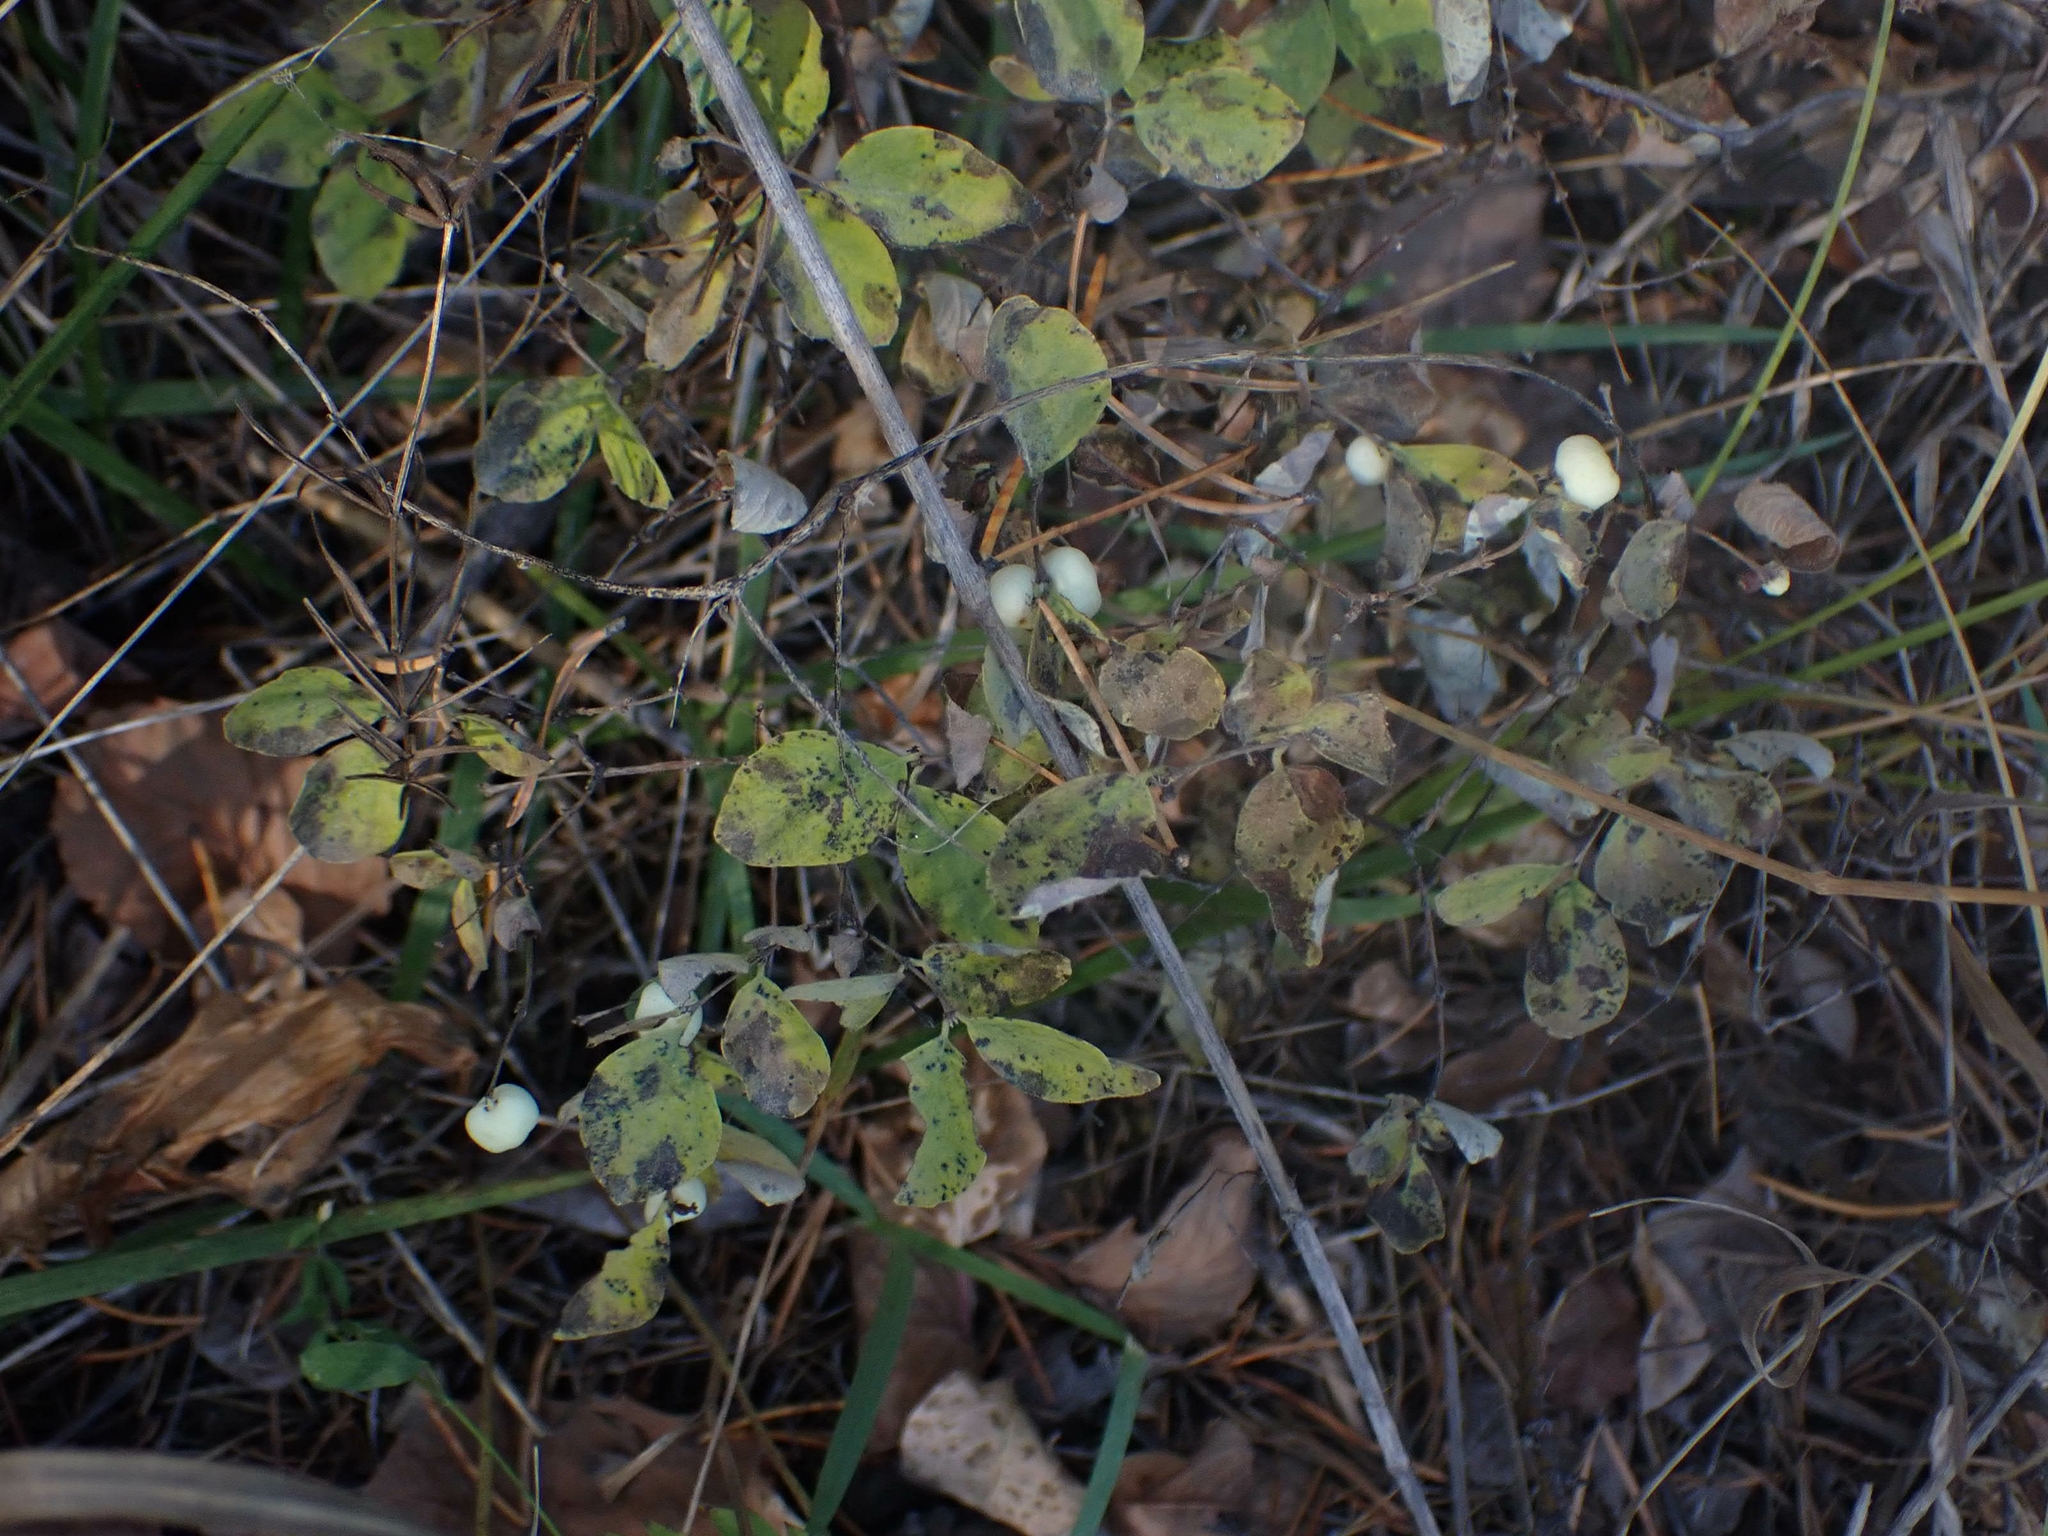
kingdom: Plantae
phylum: Tracheophyta
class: Magnoliopsida
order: Dipsacales
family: Caprifoliaceae
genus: Symphoricarpos
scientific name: Symphoricarpos albus
